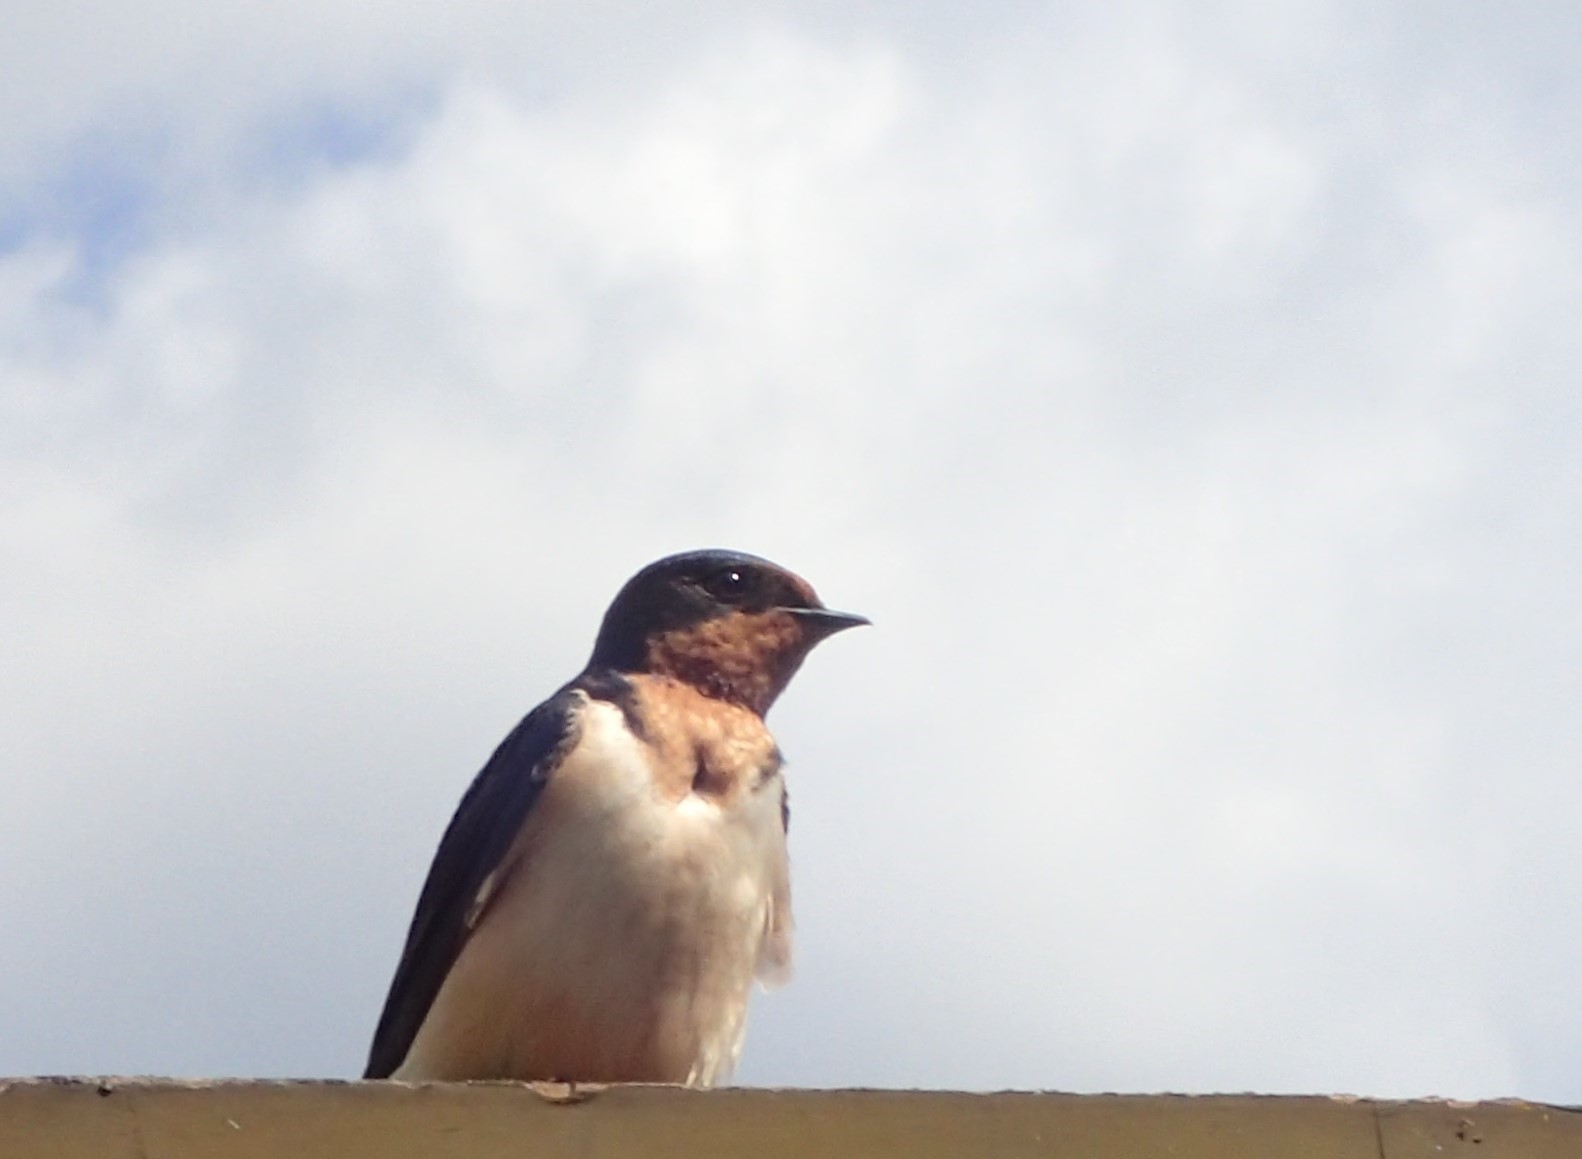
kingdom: Animalia
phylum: Chordata
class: Aves
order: Passeriformes
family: Hirundinidae
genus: Hirundo
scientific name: Hirundo rustica
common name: Barn swallow
